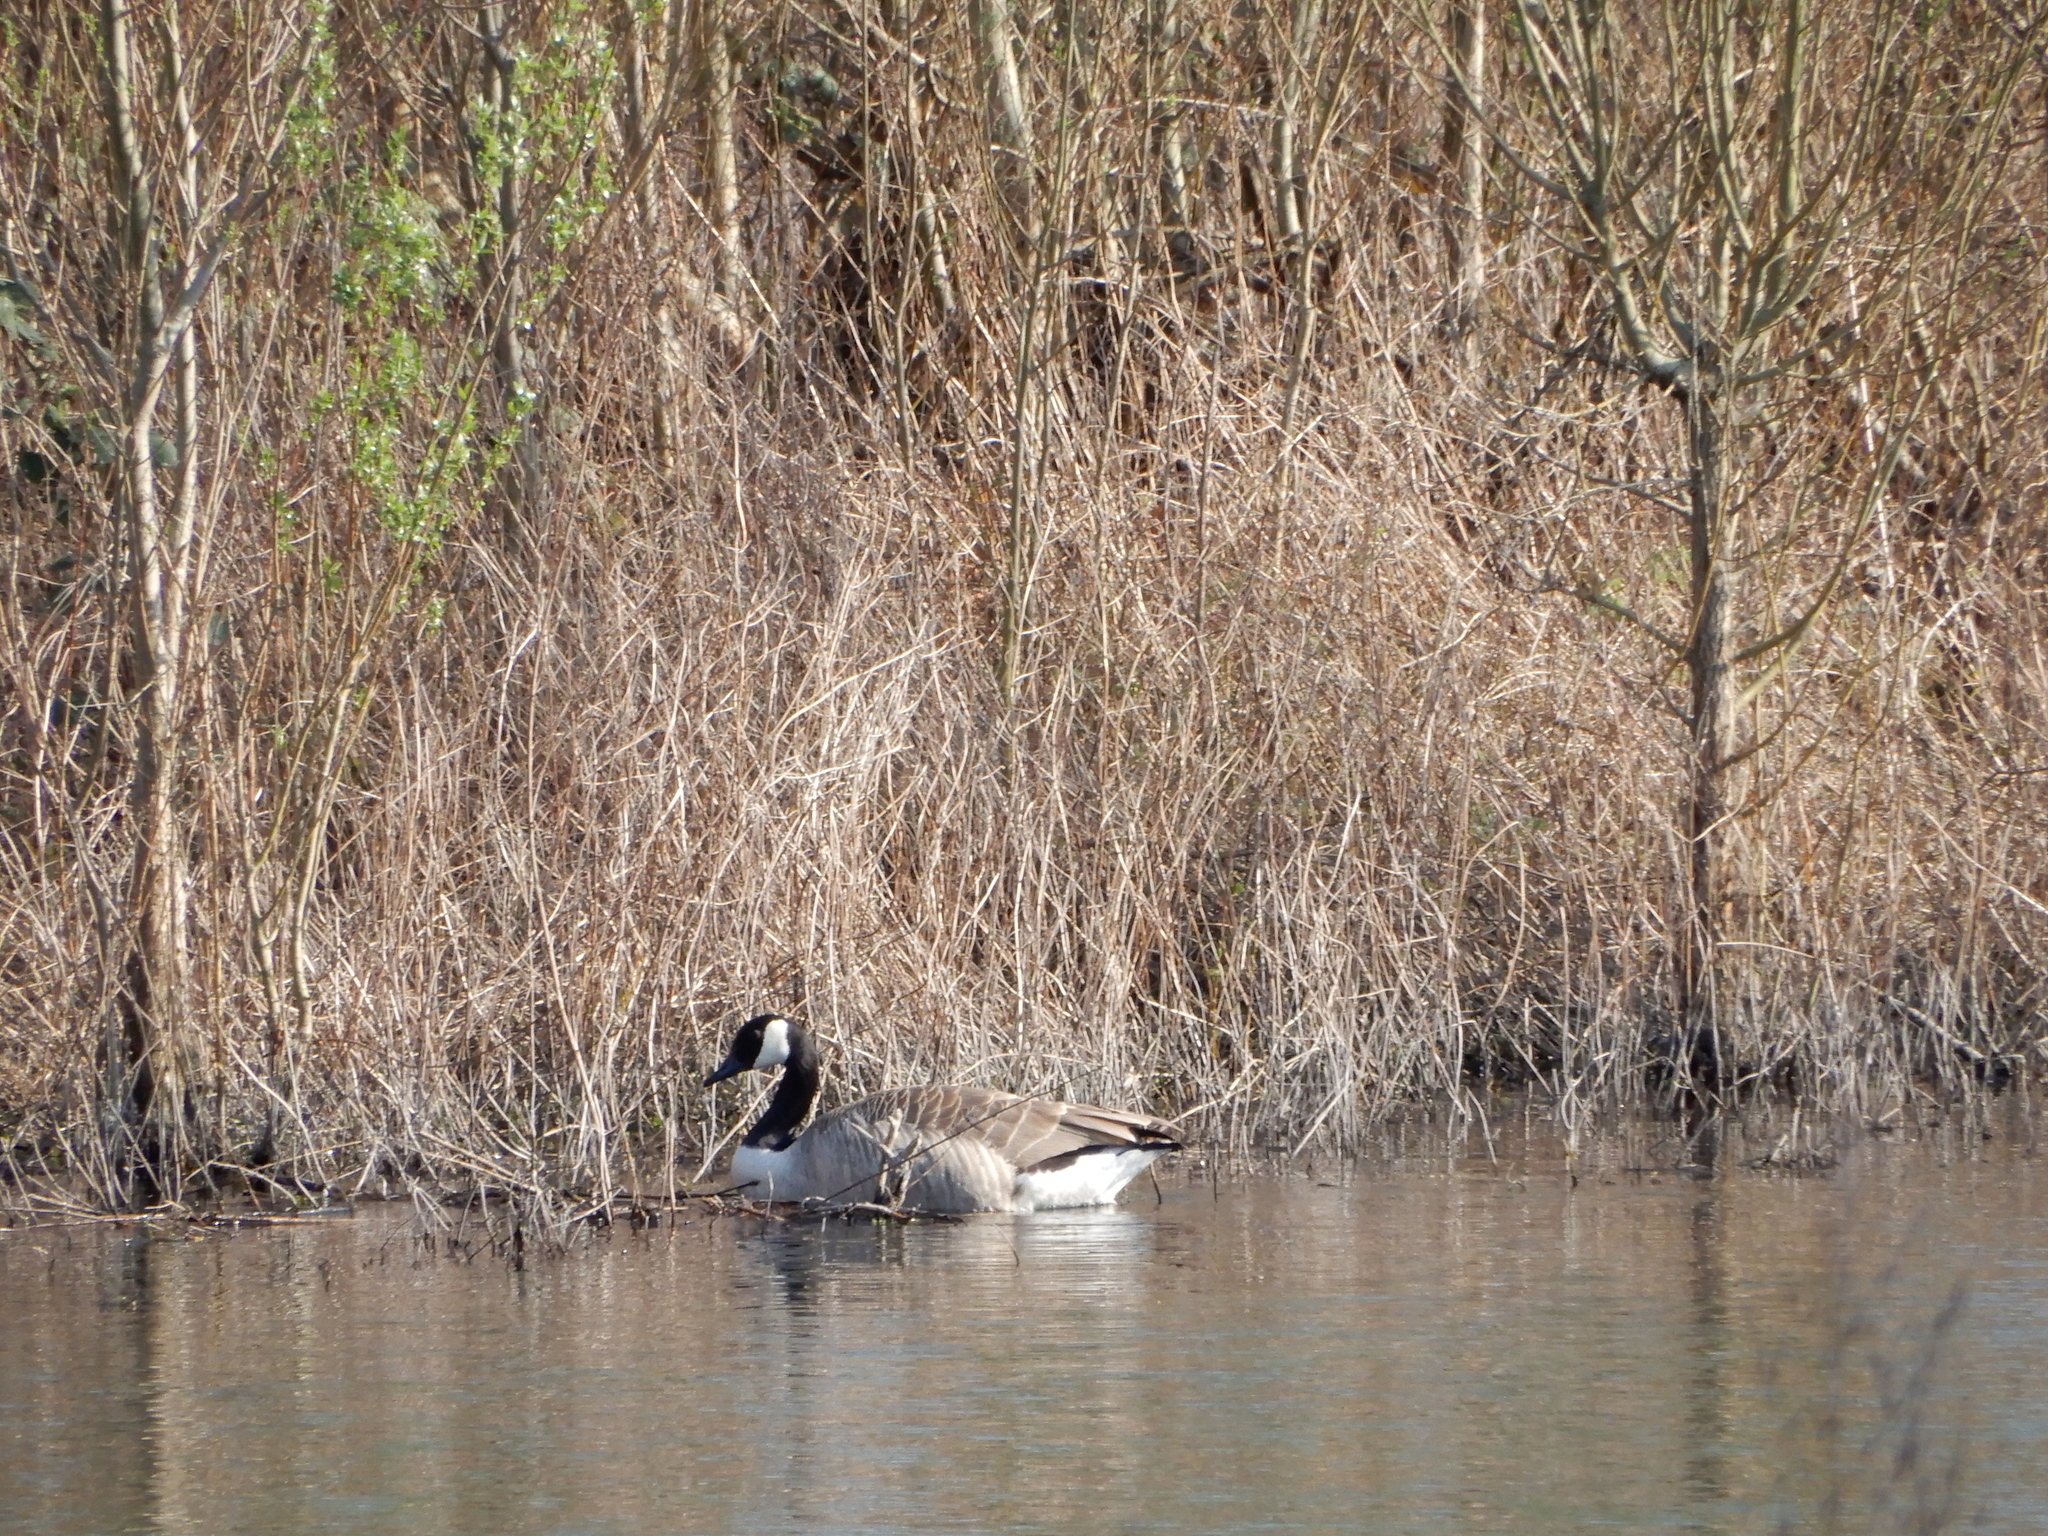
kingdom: Animalia
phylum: Chordata
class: Aves
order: Anseriformes
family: Anatidae
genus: Branta
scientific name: Branta canadensis
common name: Canada goose
